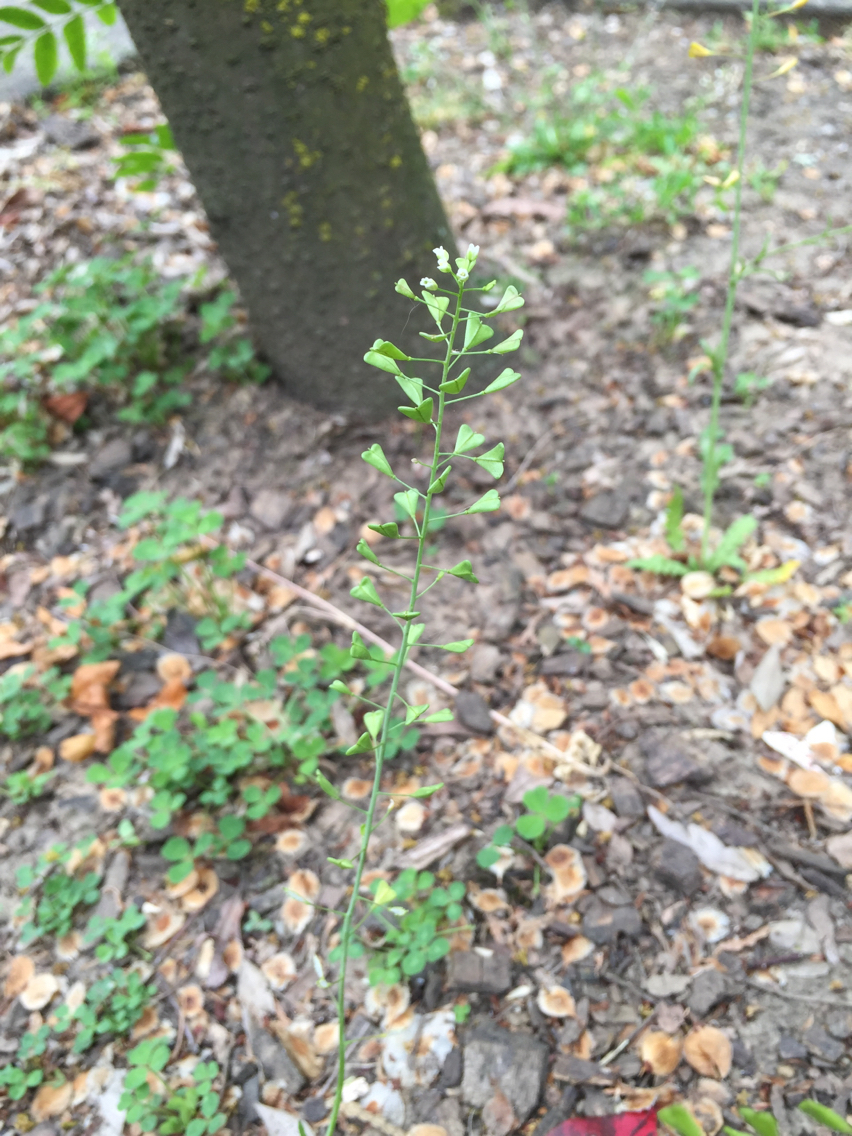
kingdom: Plantae
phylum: Tracheophyta
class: Magnoliopsida
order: Brassicales
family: Brassicaceae
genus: Capsella
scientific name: Capsella bursa-pastoris
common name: Shepherd's purse
